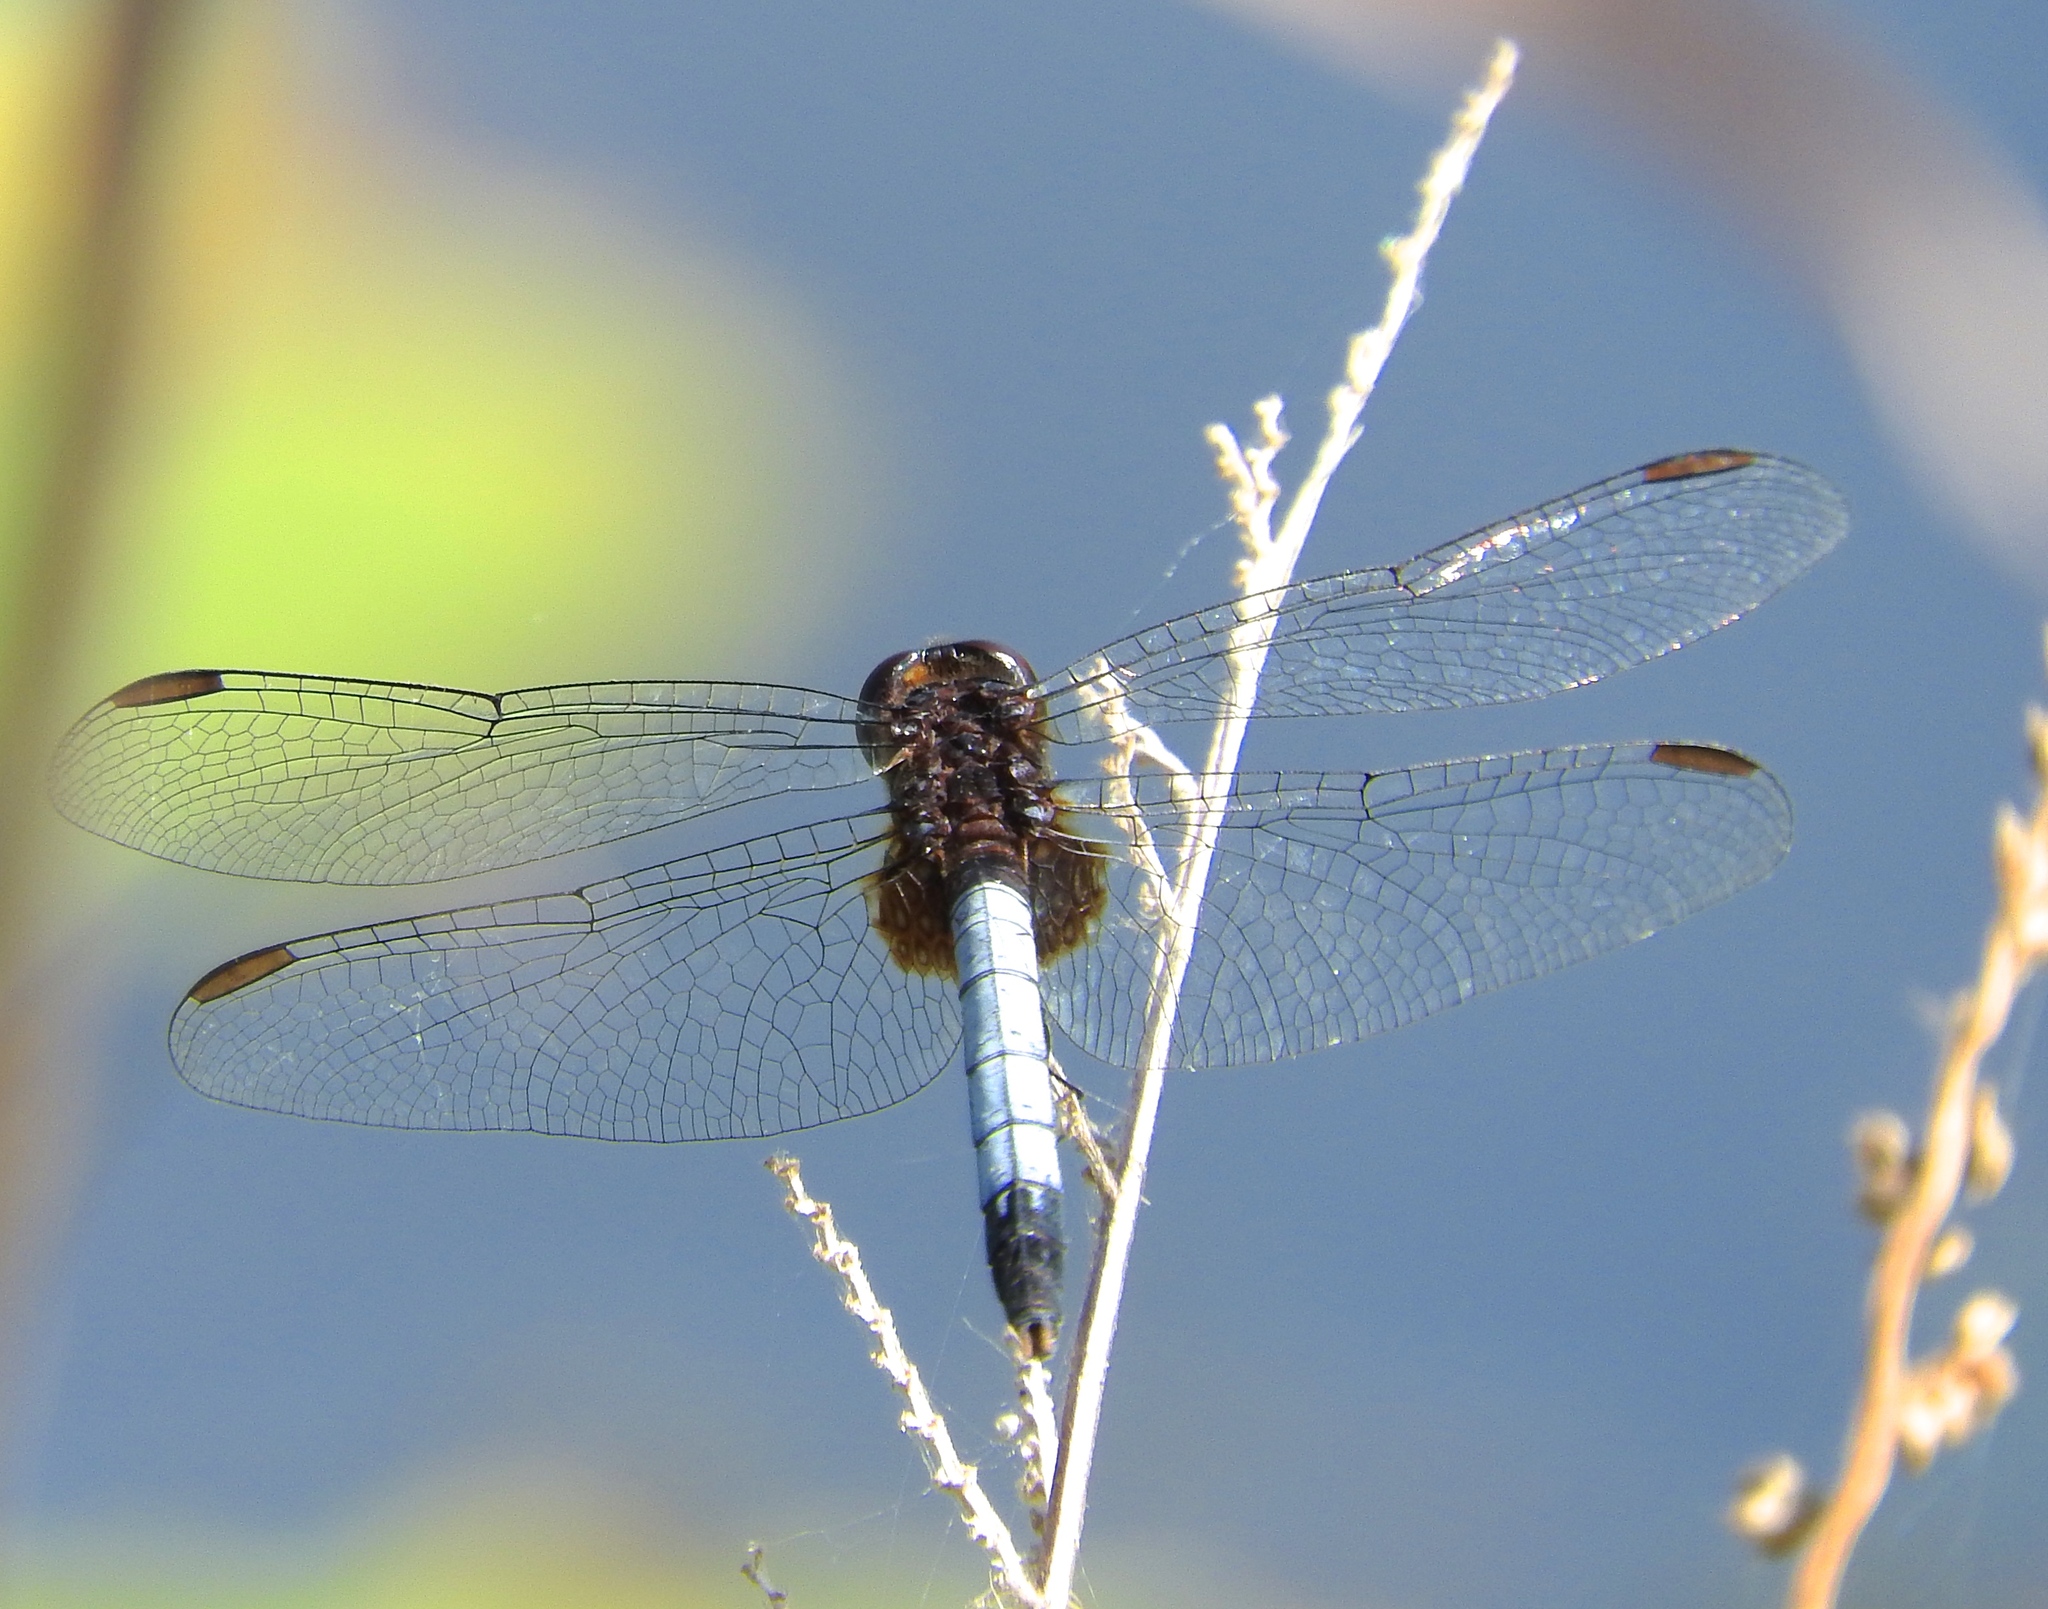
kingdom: Animalia
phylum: Arthropoda
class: Insecta
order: Odonata
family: Libellulidae
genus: Erythrodiplax
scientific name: Erythrodiplax basifusca
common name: Plateau dragonlet
